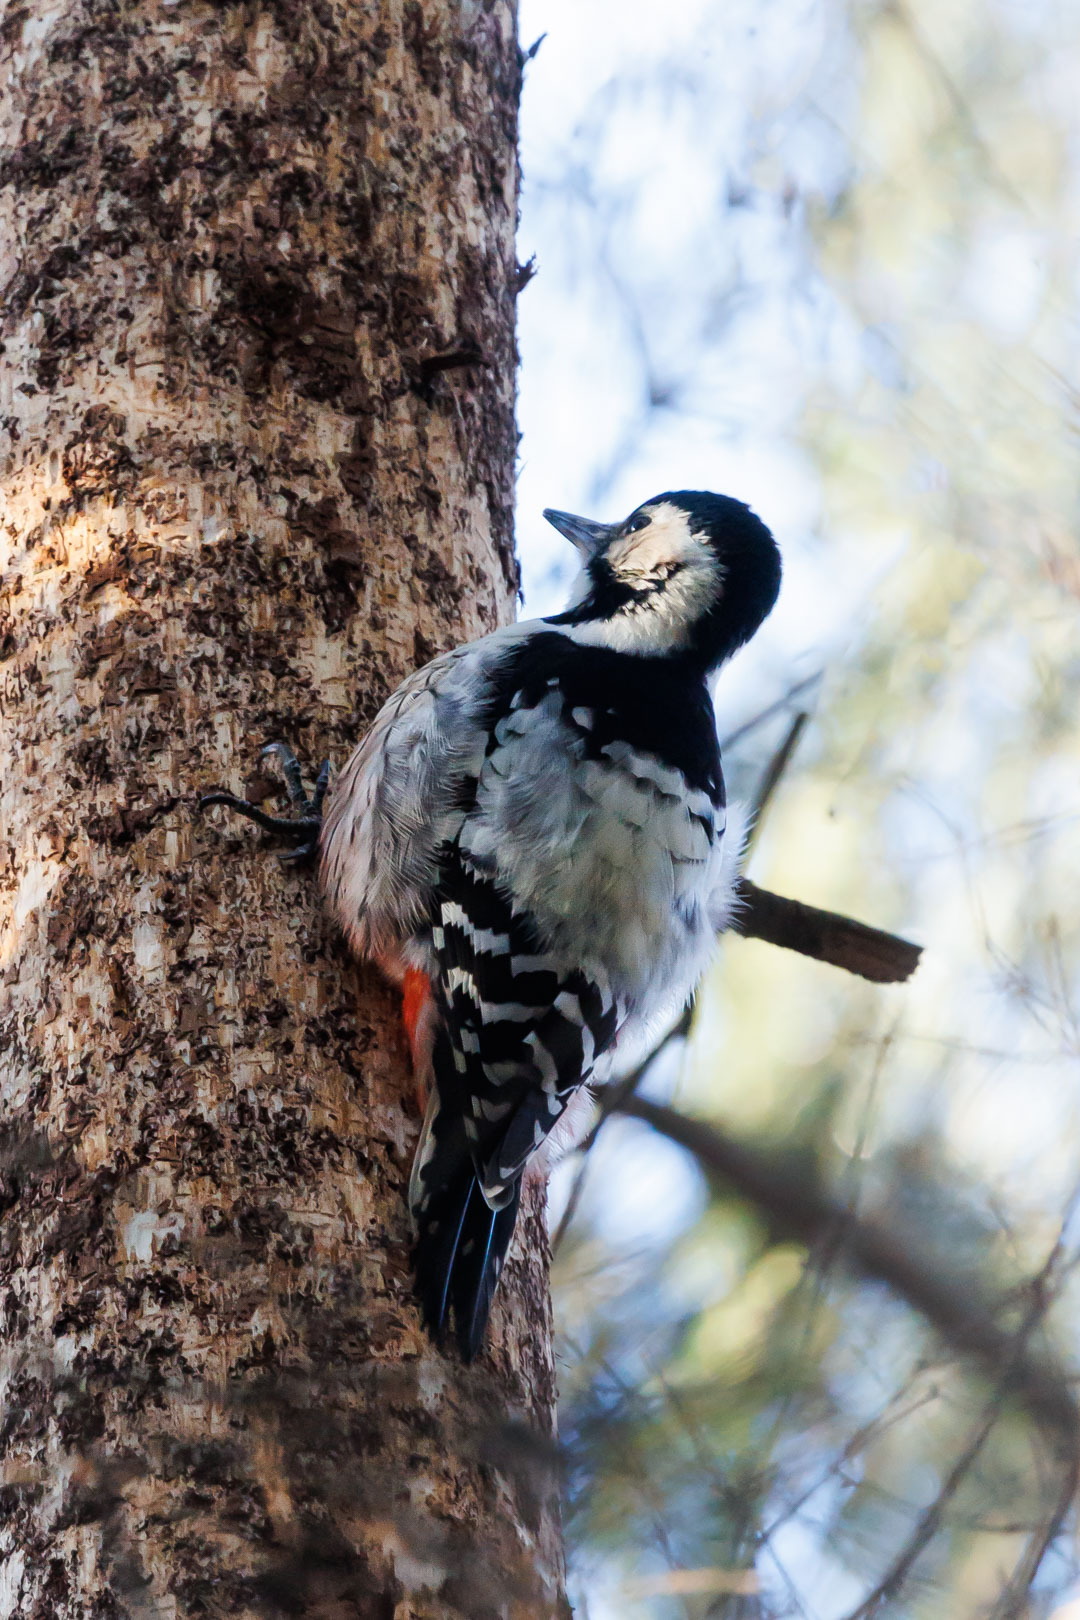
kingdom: Animalia
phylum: Chordata
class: Aves
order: Piciformes
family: Picidae
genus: Dendrocopos
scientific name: Dendrocopos leucotos
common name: White-backed woodpecker
